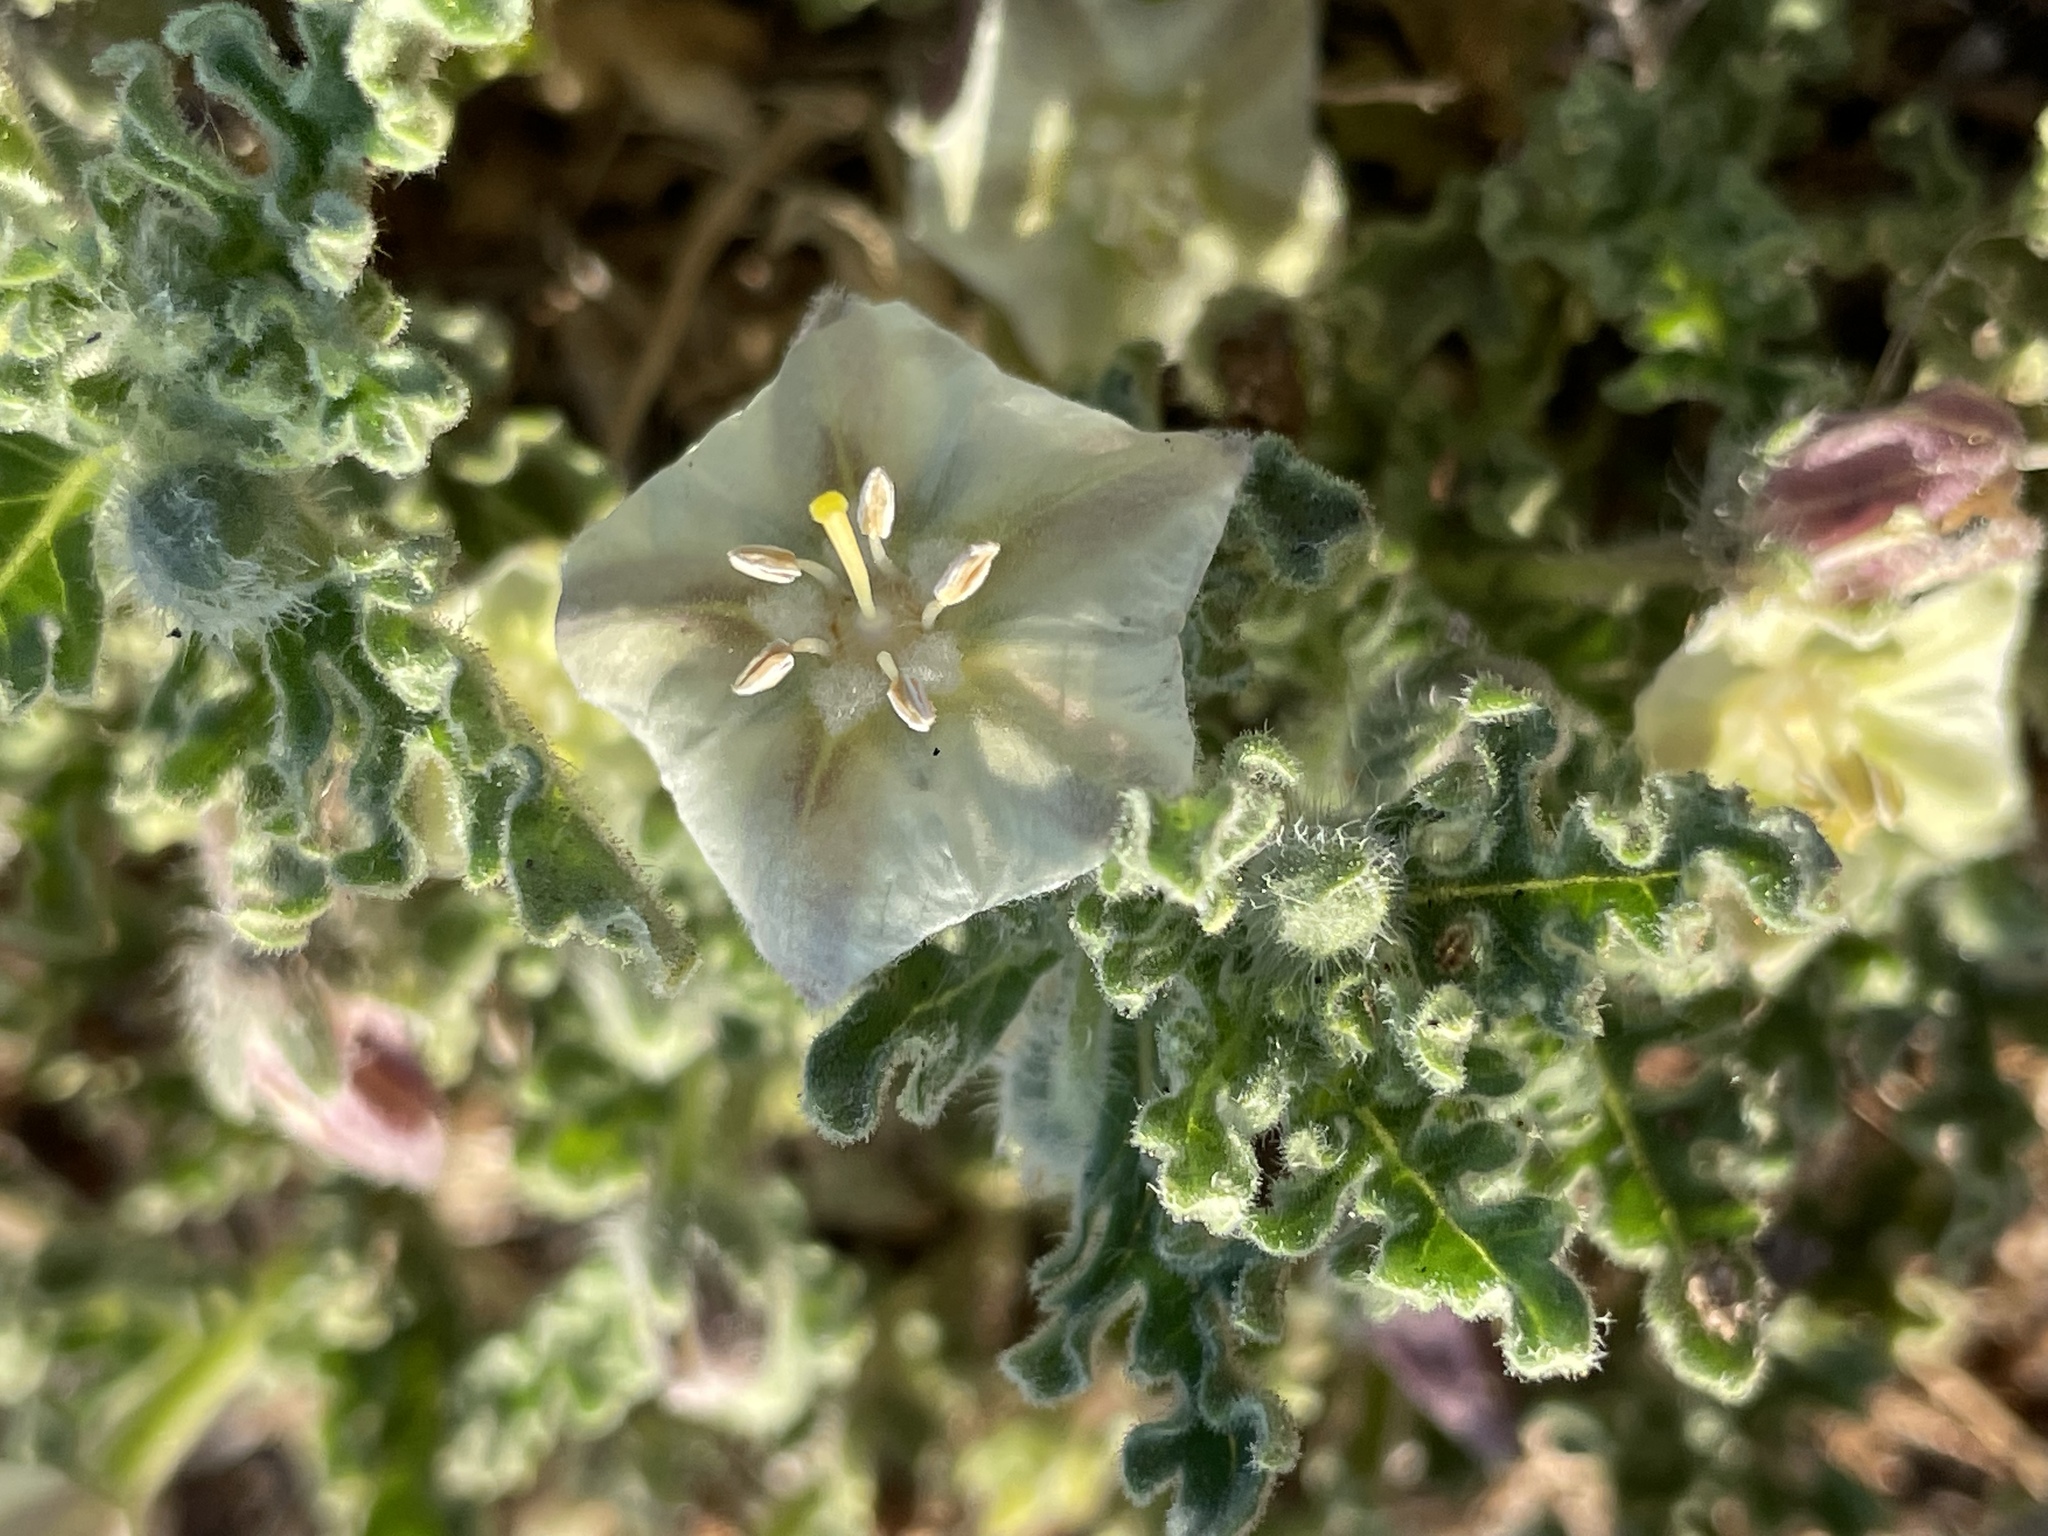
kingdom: Plantae
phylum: Tracheophyta
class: Magnoliopsida
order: Solanales
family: Solanaceae
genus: Chamaesaracha
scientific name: Chamaesaracha coniodes
